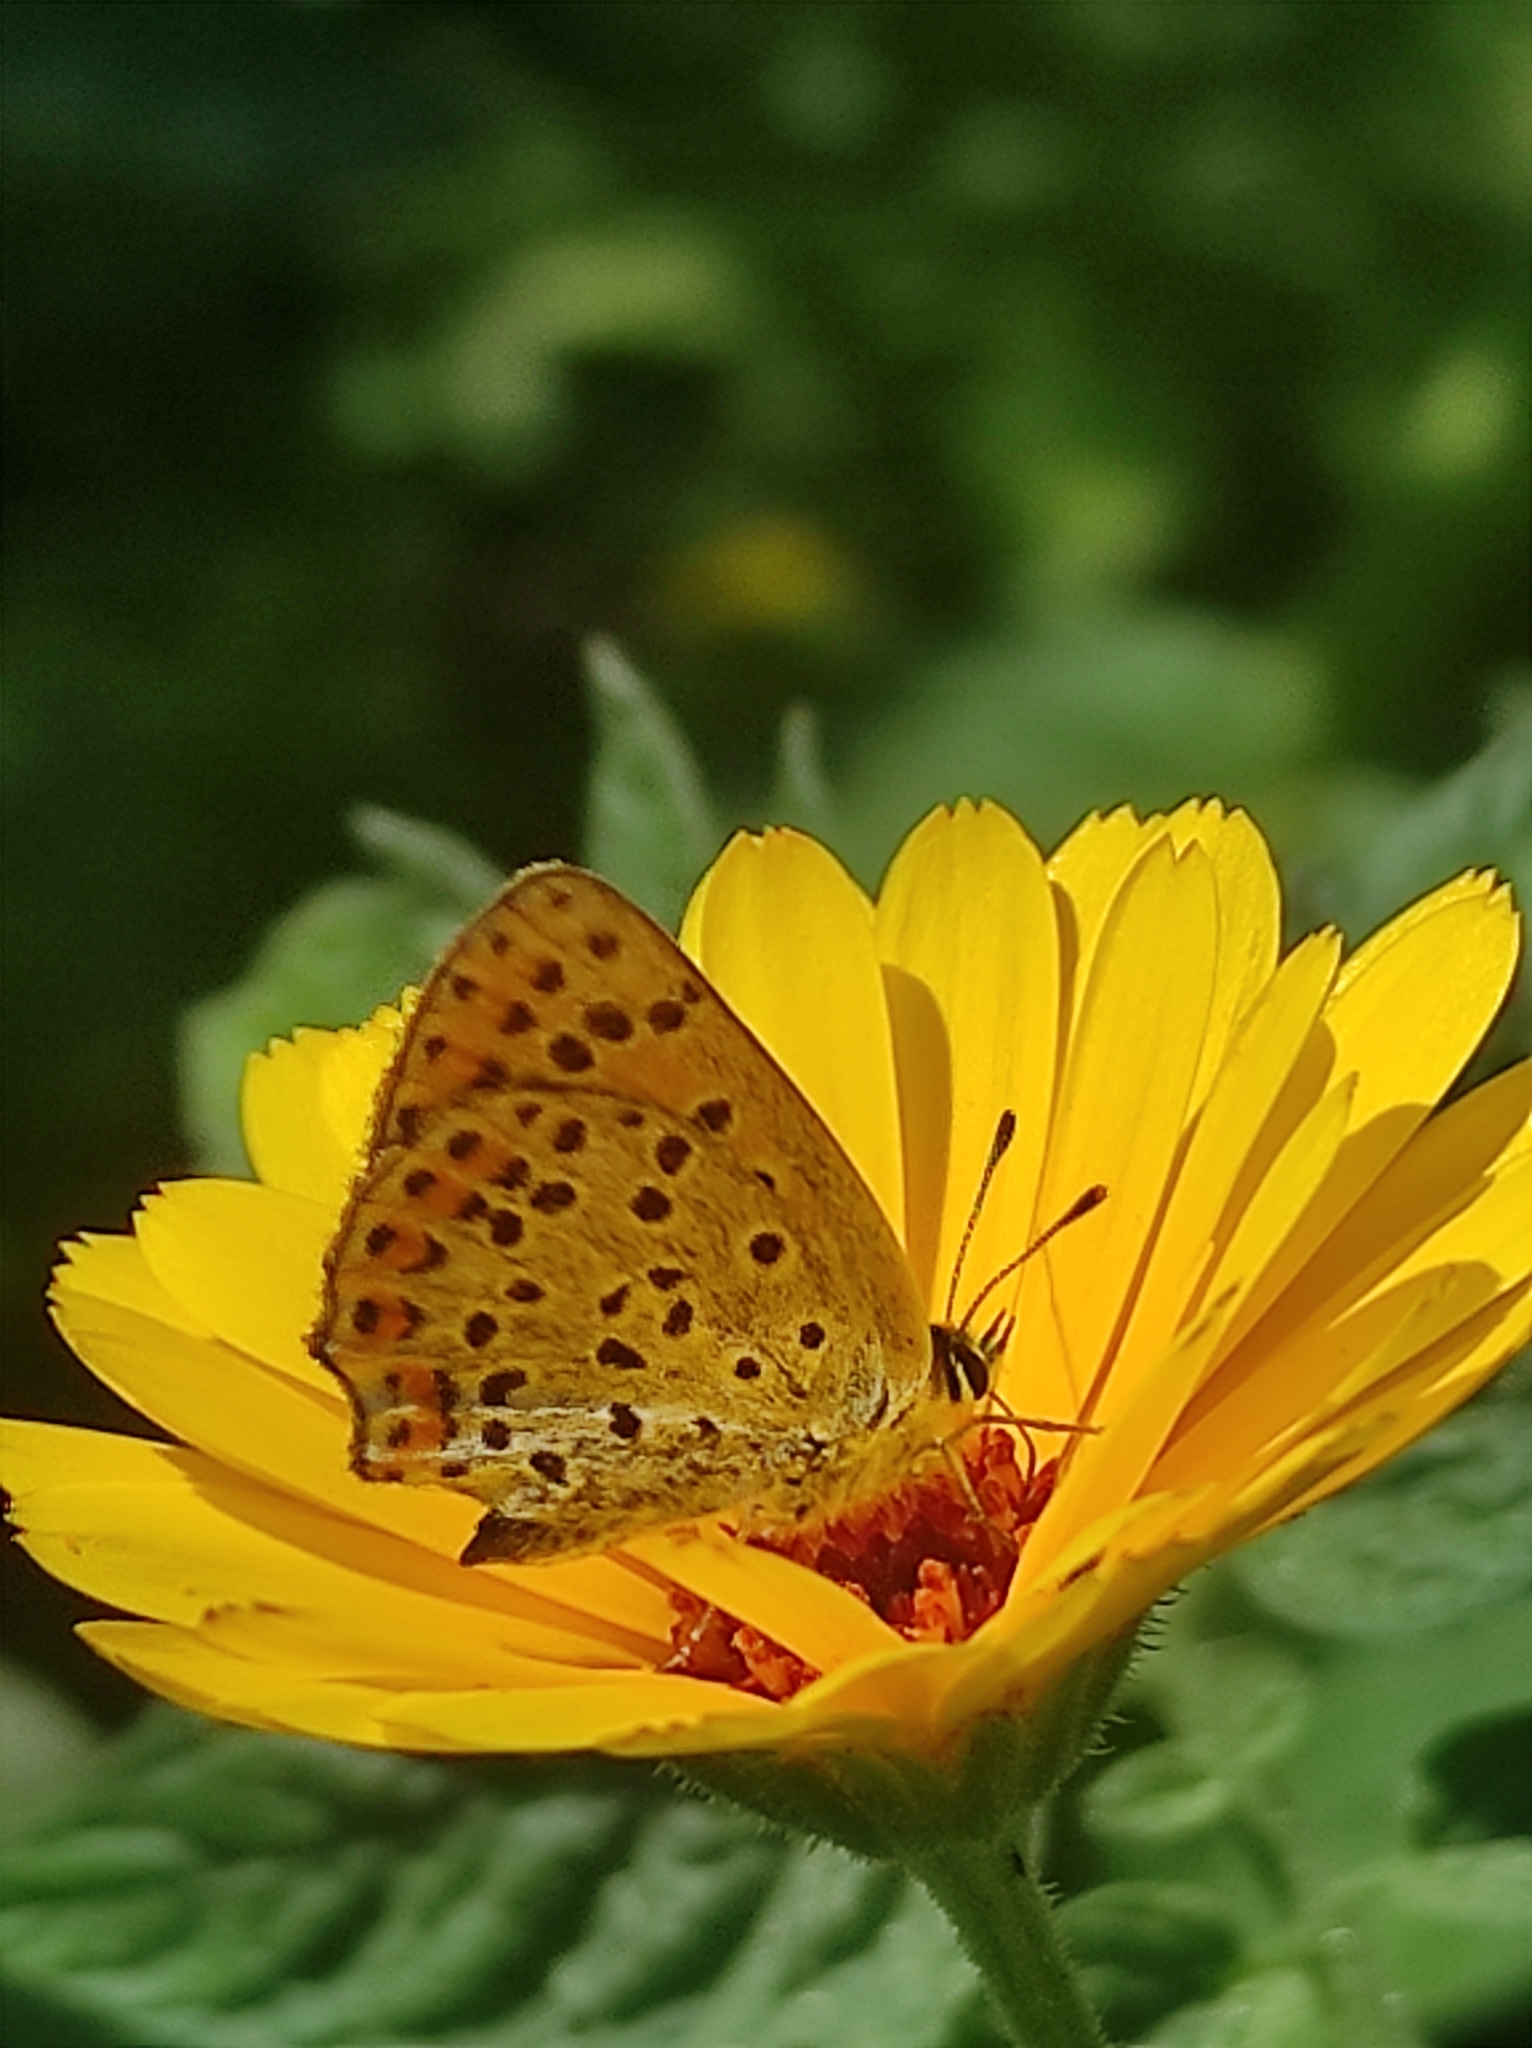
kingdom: Animalia
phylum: Arthropoda
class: Insecta
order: Lepidoptera
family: Lycaenidae
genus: Loweia
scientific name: Loweia tityrus
